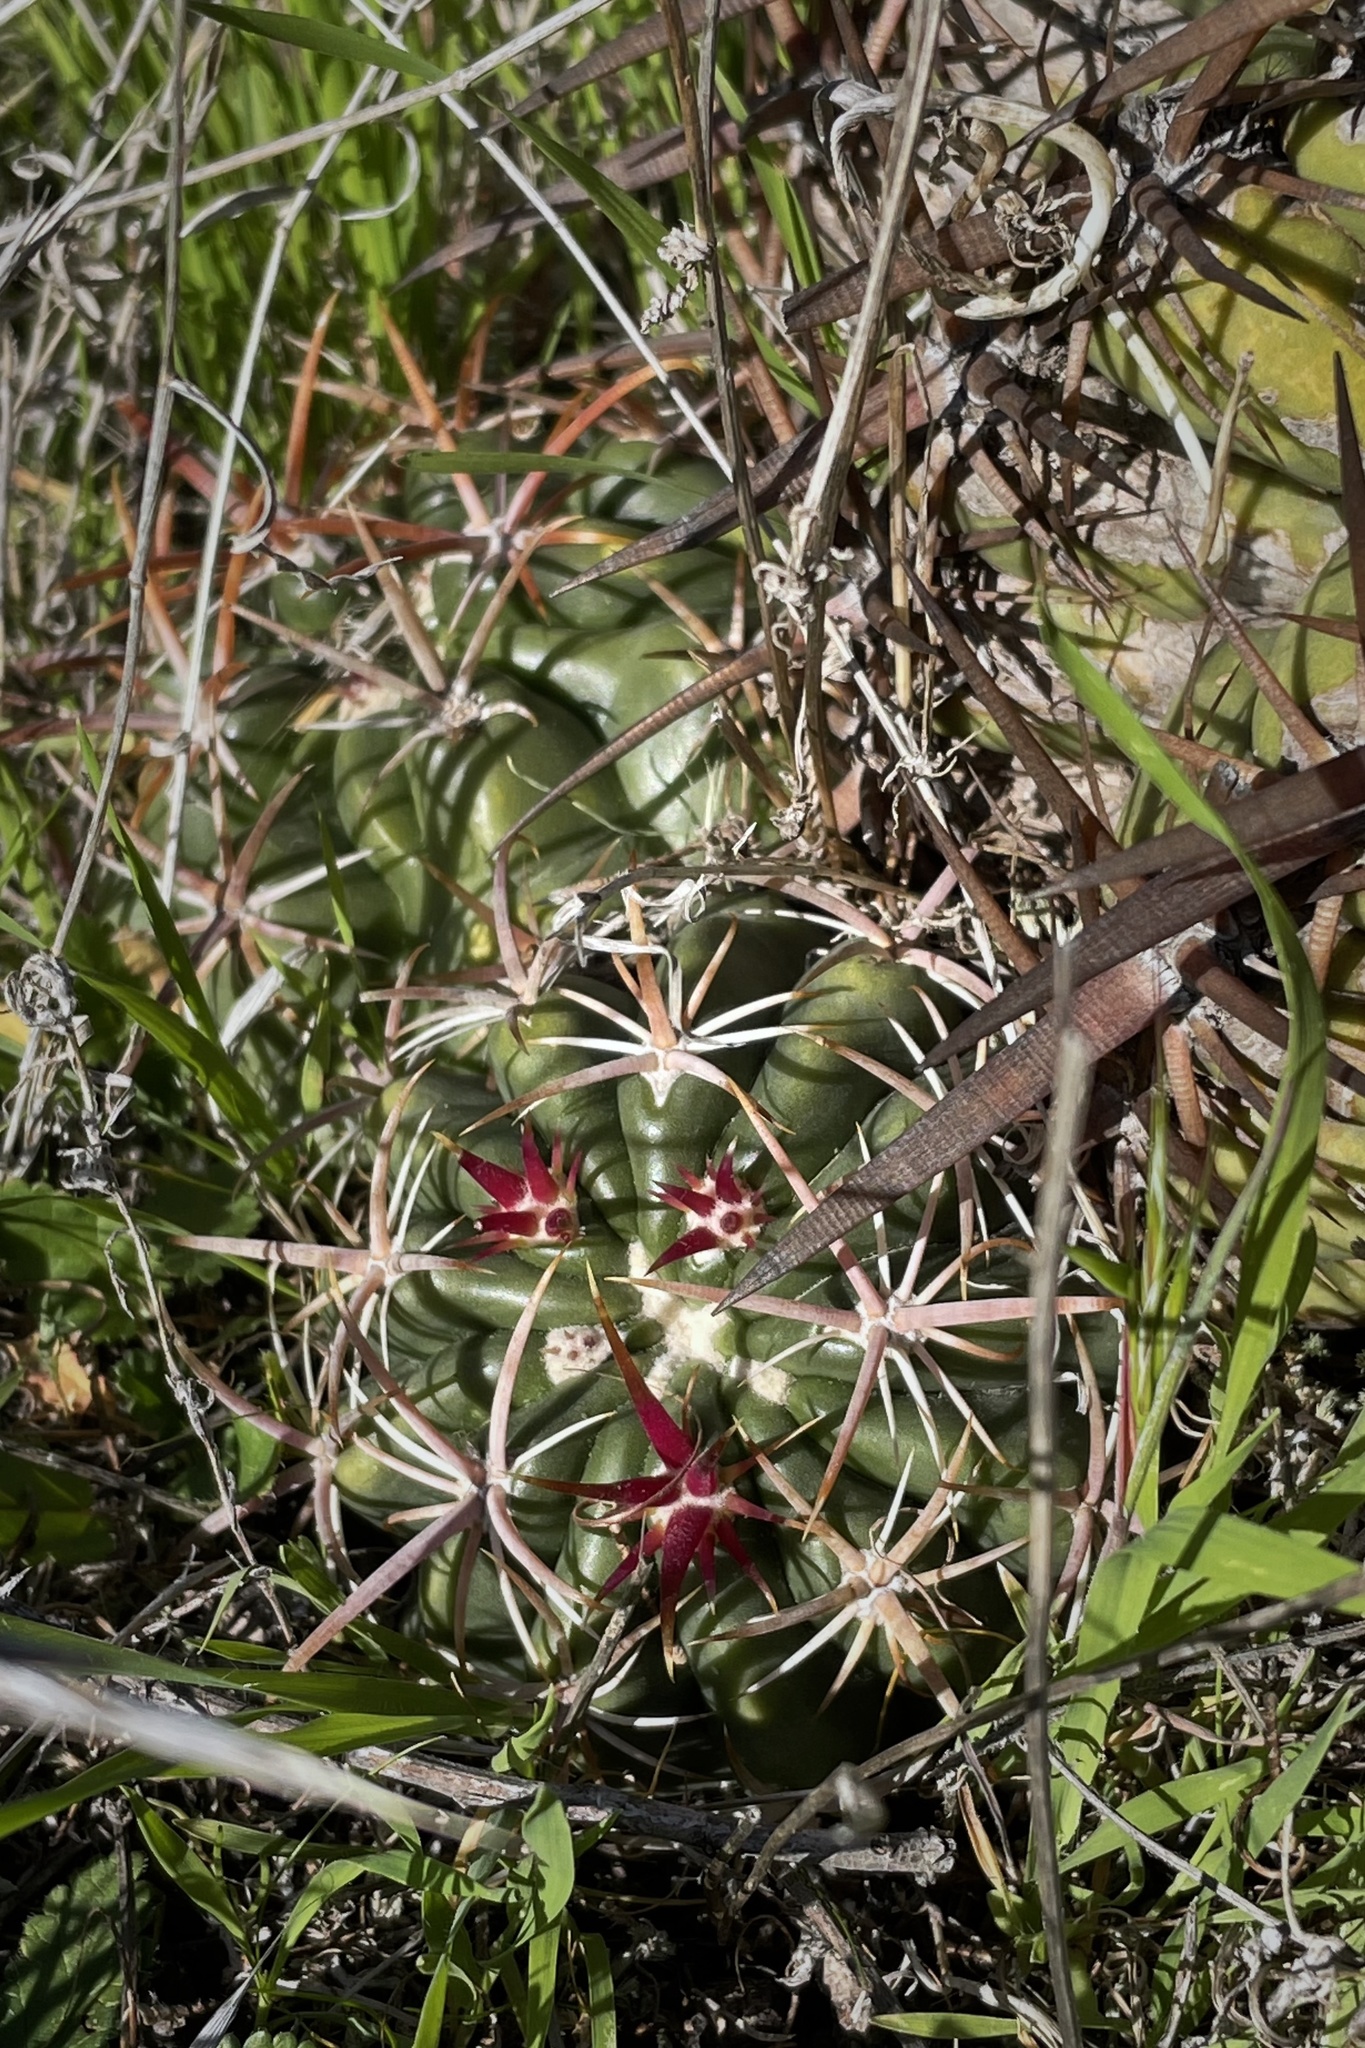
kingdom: Plantae
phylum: Tracheophyta
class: Magnoliopsida
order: Caryophyllales
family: Cactaceae
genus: Ferocactus
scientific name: Ferocactus viridescens
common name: San diego barrel cactus
